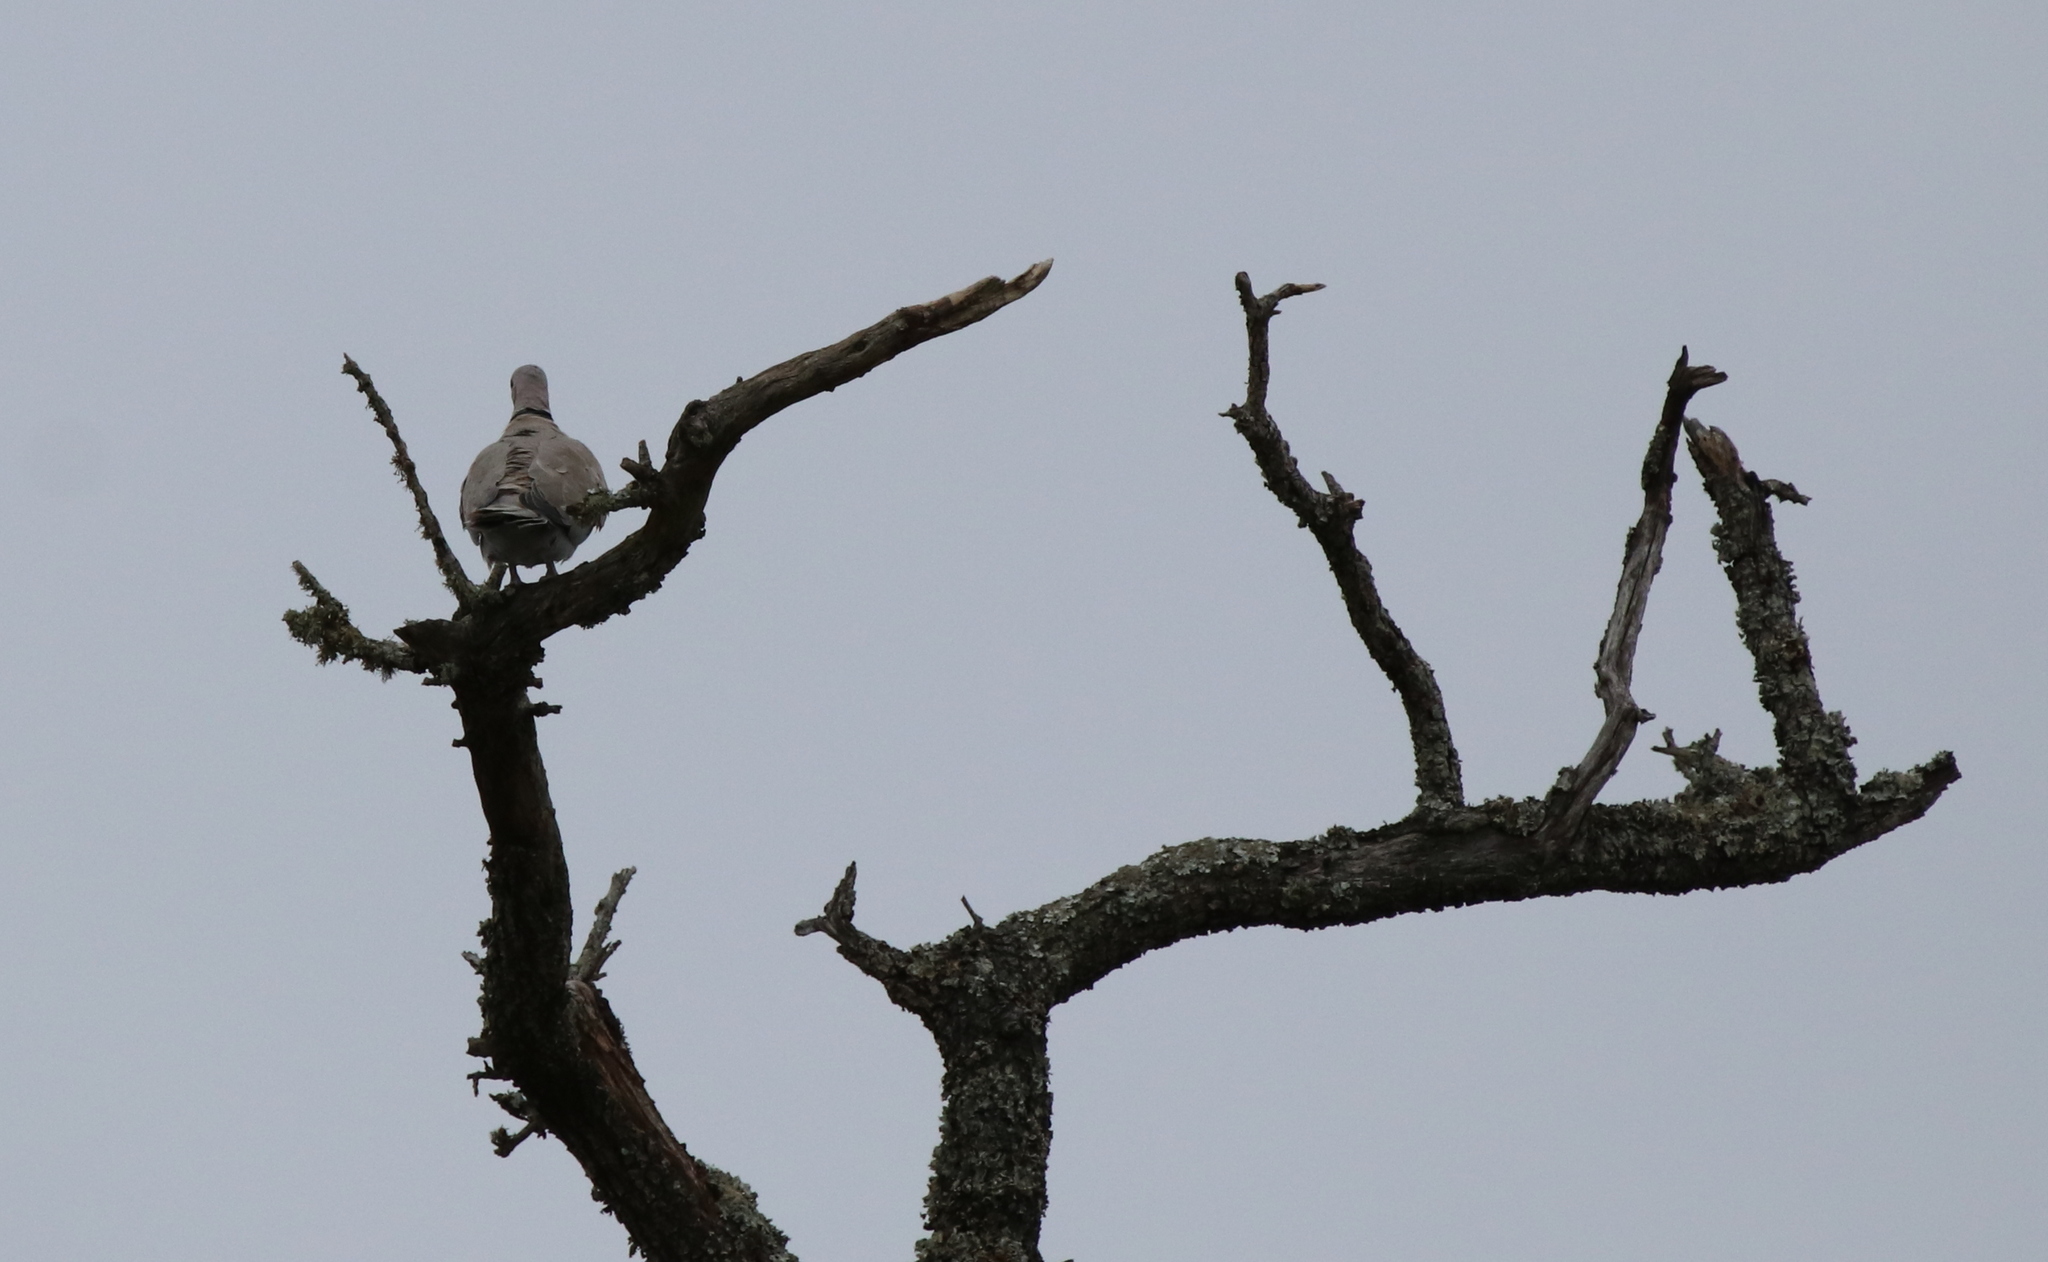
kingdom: Animalia
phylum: Chordata
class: Aves
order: Columbiformes
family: Columbidae
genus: Streptopelia
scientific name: Streptopelia decaocto
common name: Eurasian collared dove
